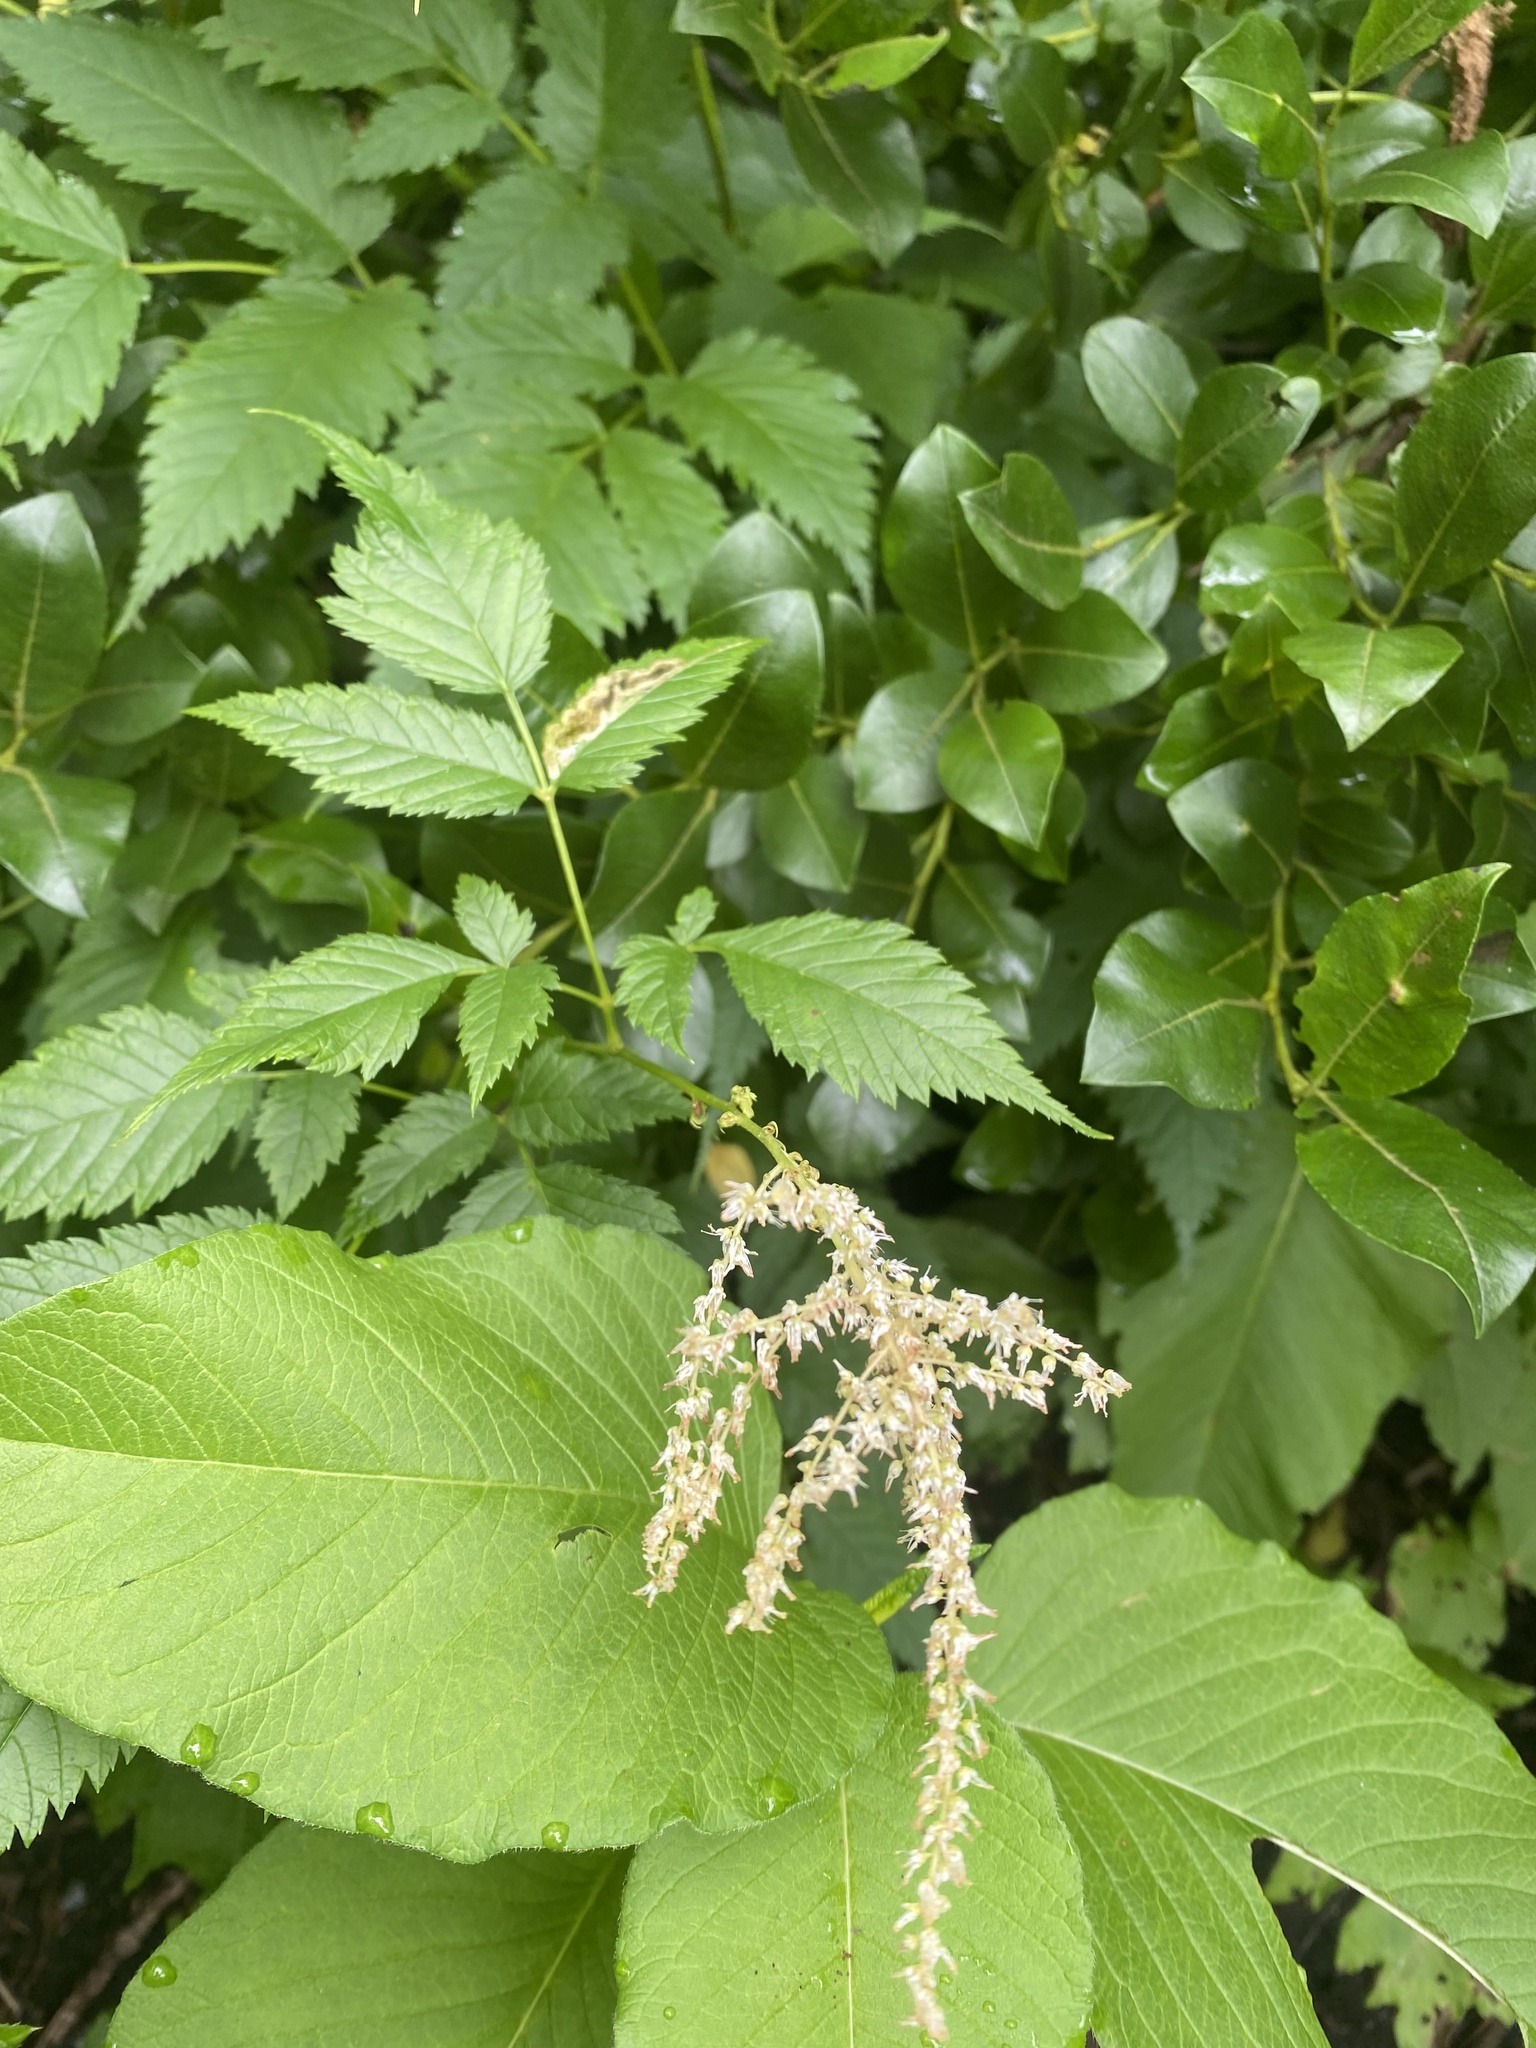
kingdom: Plantae
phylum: Tracheophyta
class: Magnoliopsida
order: Rosales
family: Rosaceae
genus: Aruncus
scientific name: Aruncus dioicus
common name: Buck's-beard
